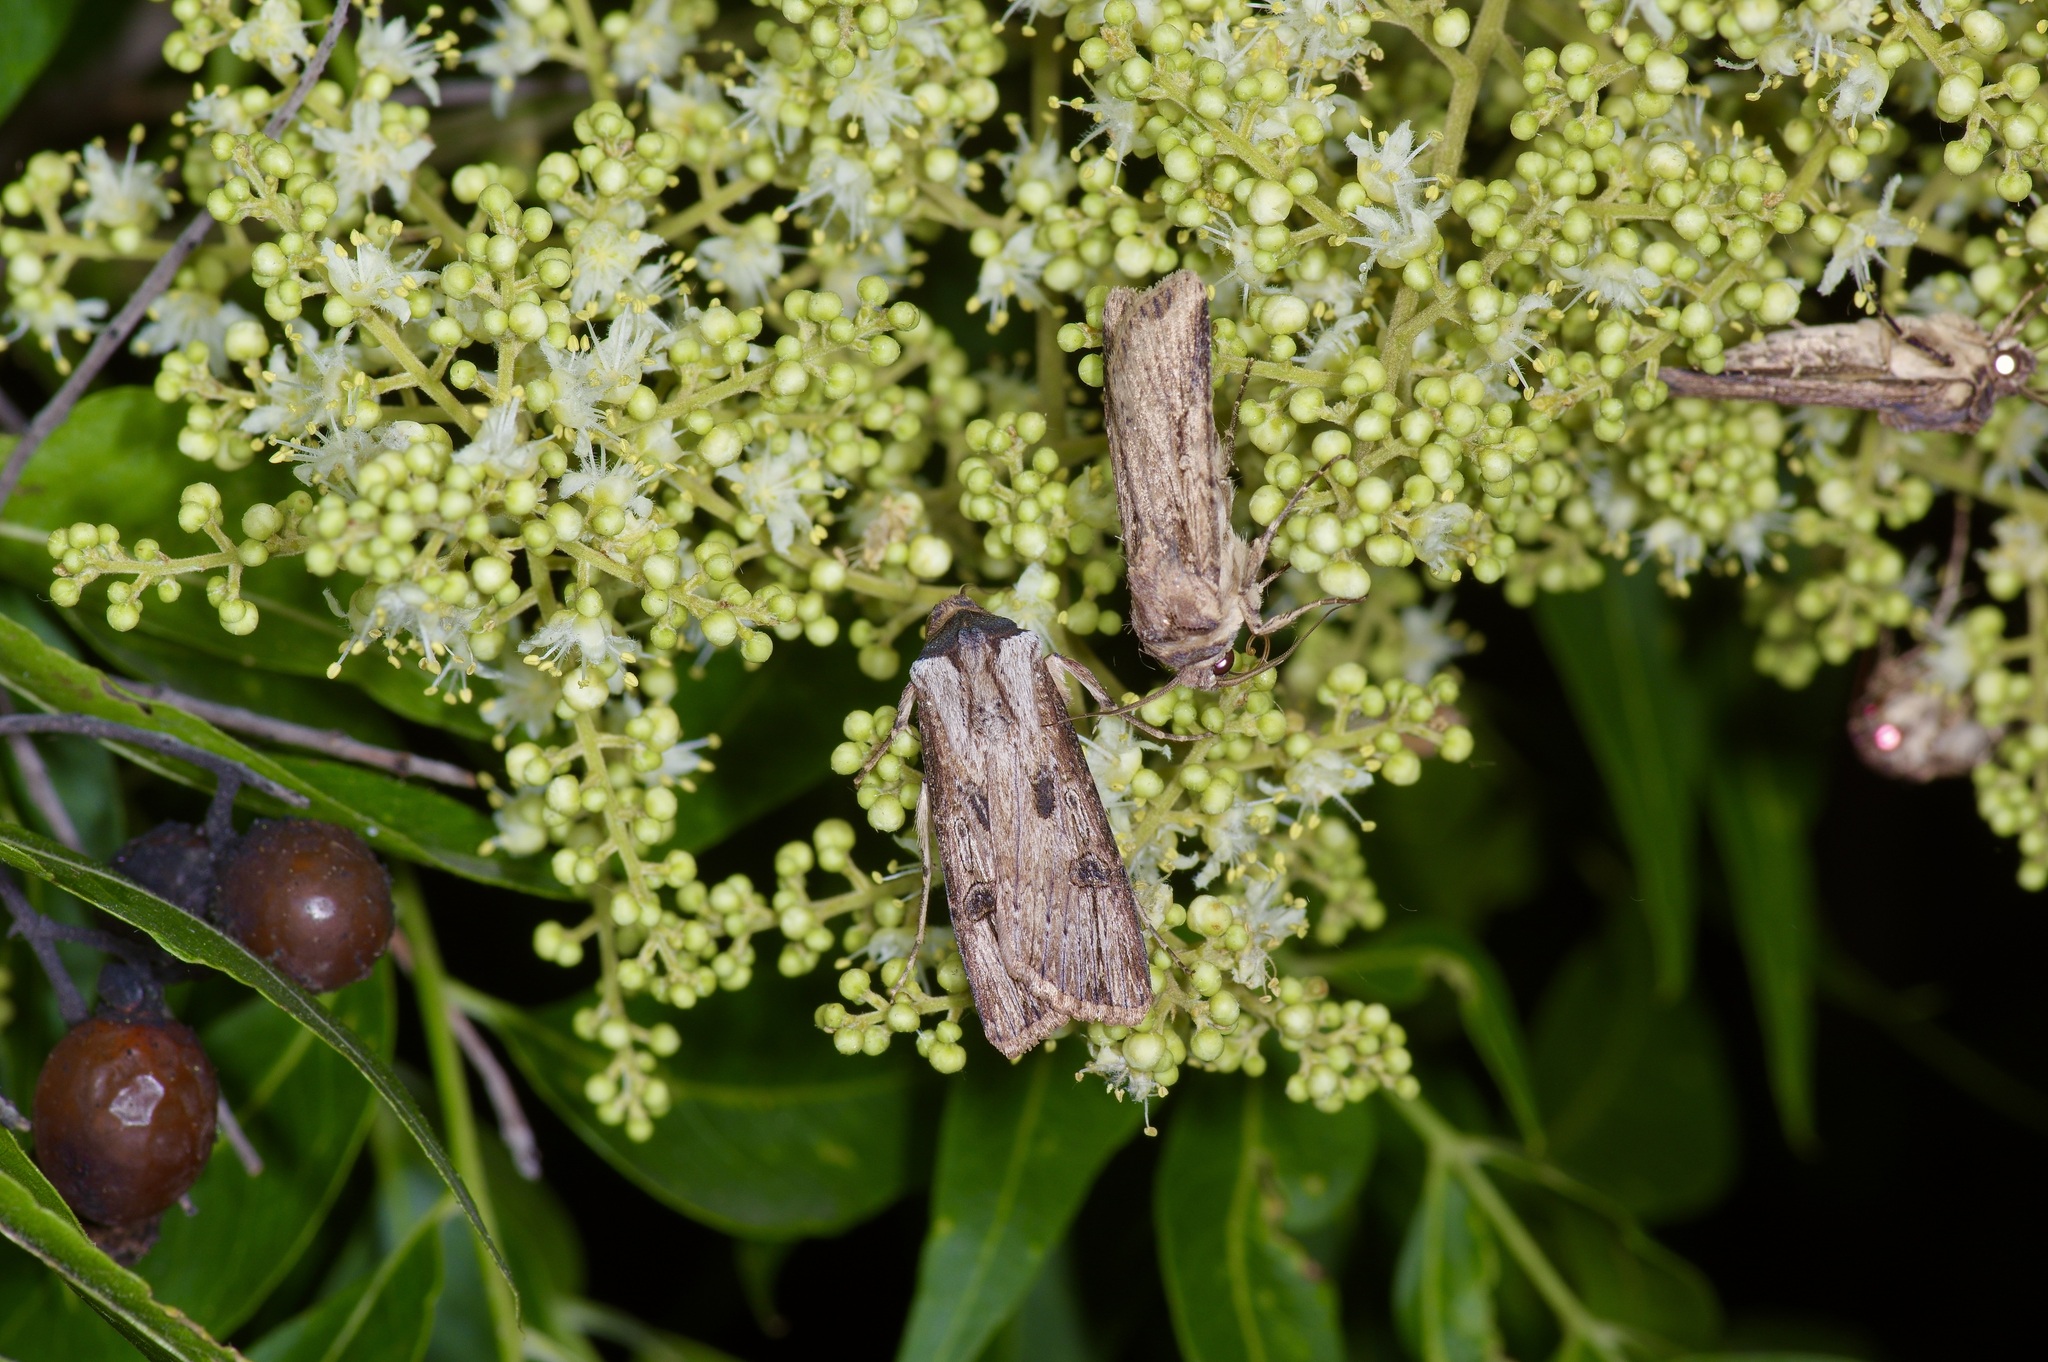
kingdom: Animalia
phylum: Arthropoda
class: Insecta
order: Lepidoptera
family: Noctuidae
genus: Agrotis
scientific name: Agrotis malefida
